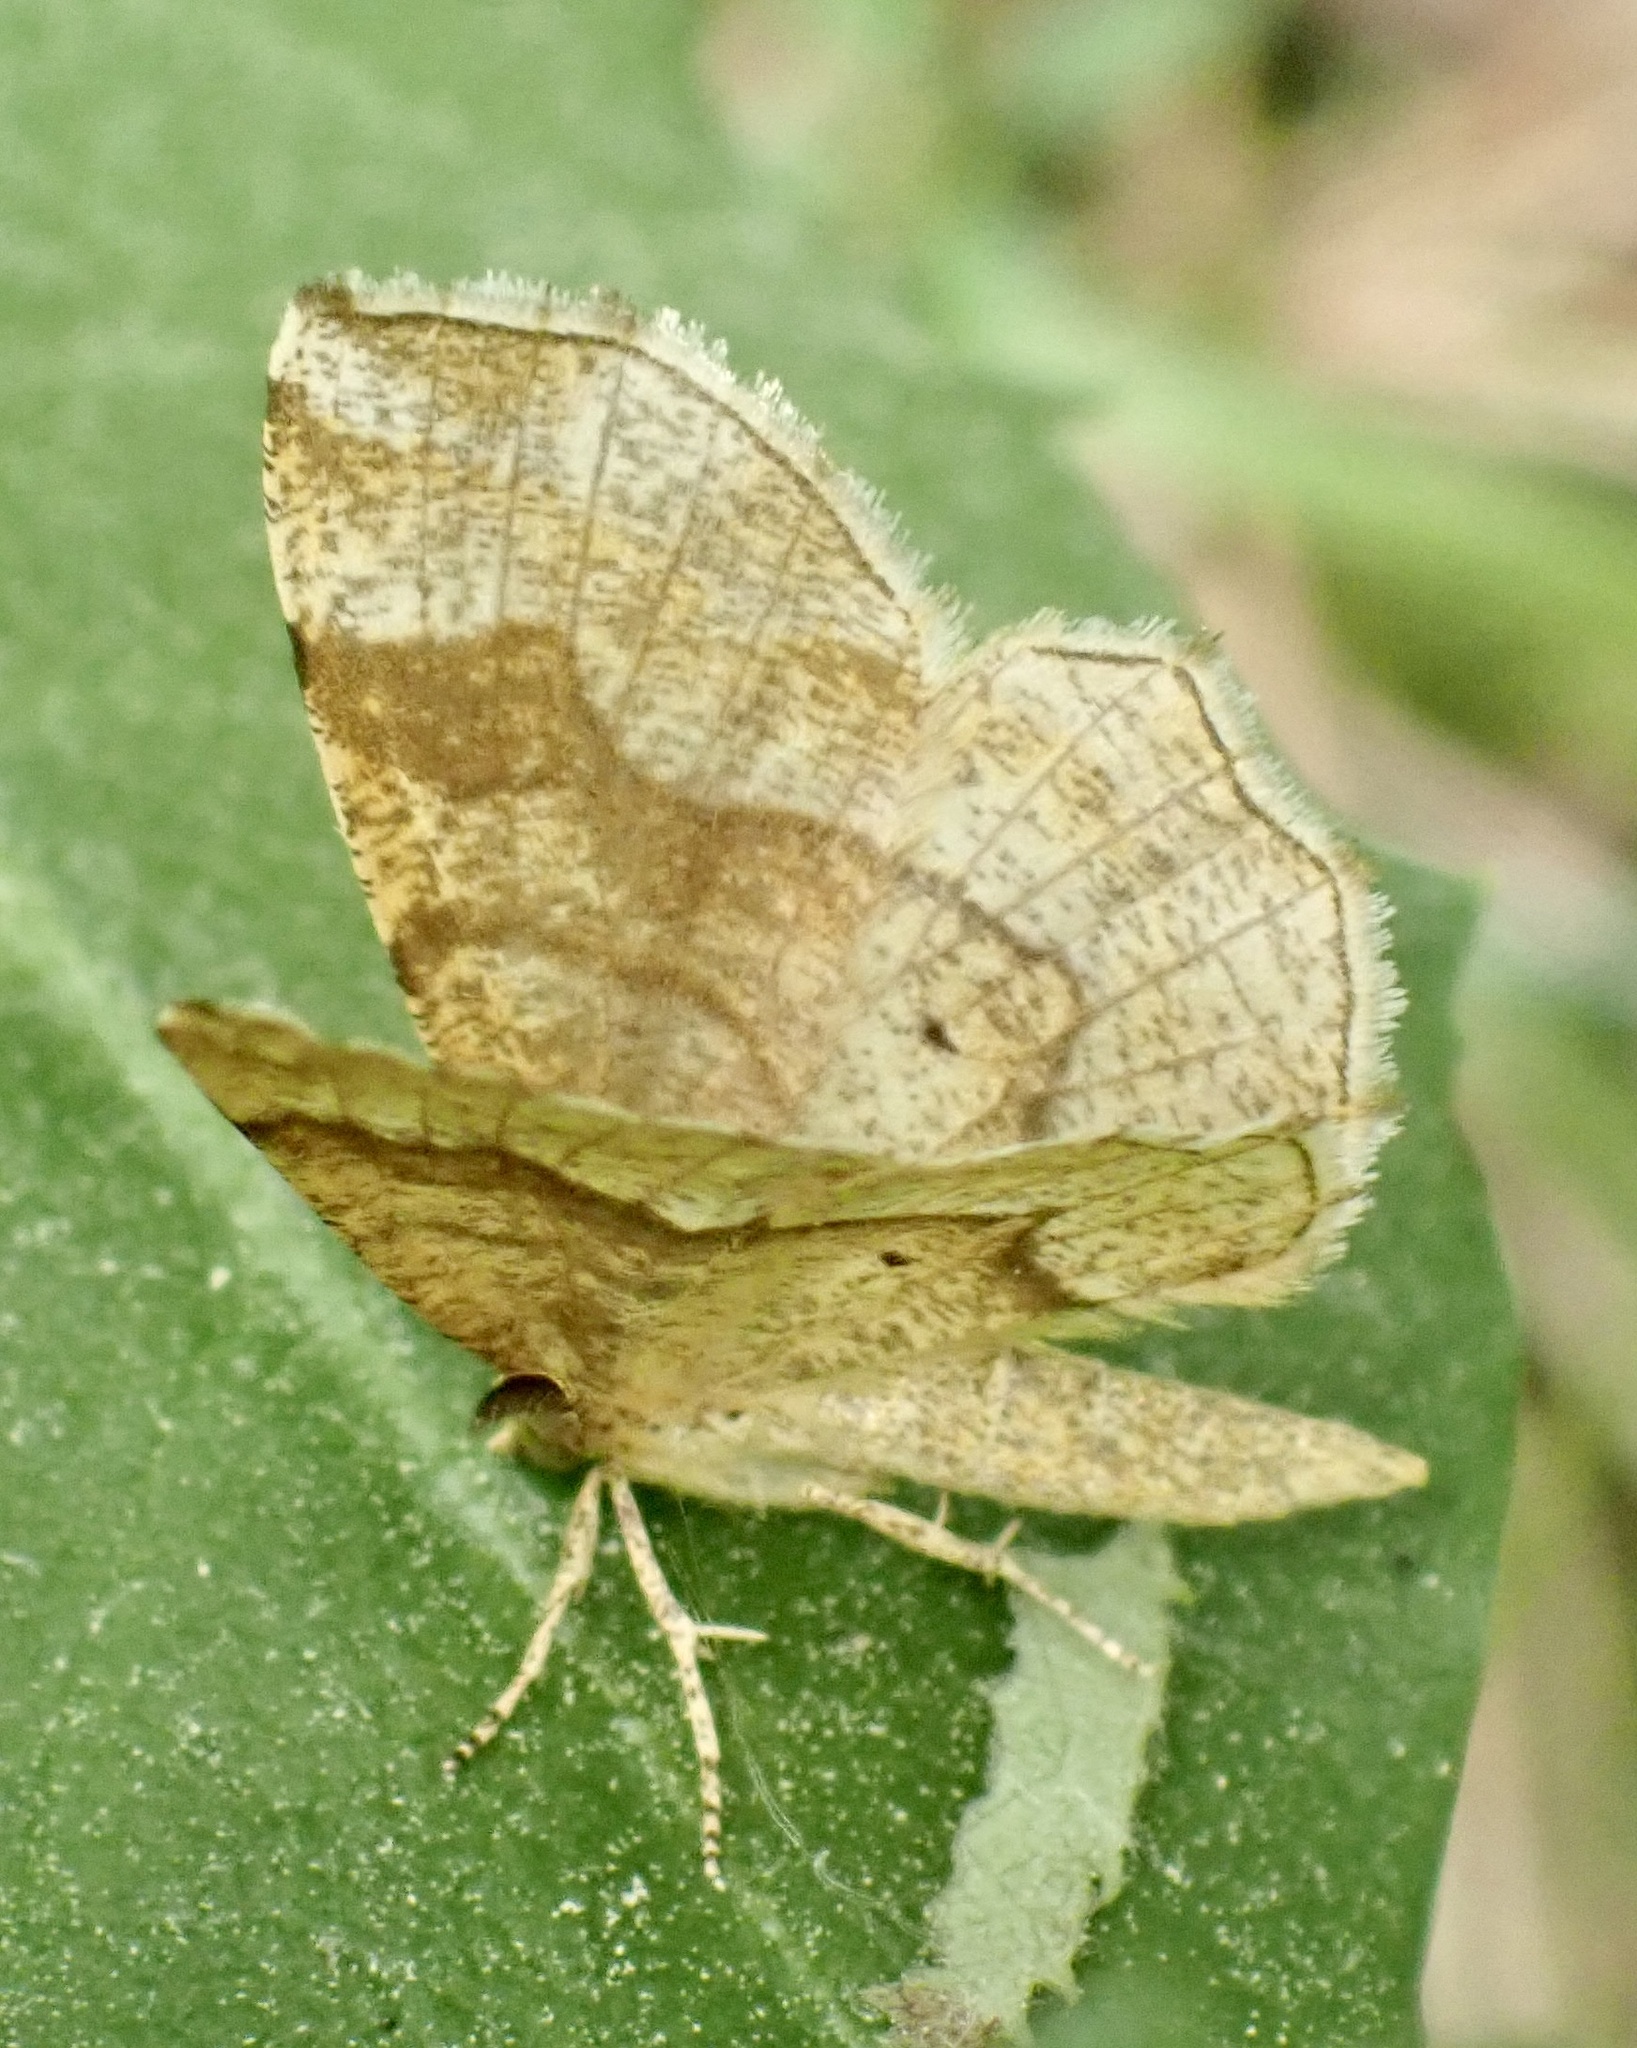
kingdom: Animalia
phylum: Arthropoda
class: Insecta
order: Lepidoptera
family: Geometridae
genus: Cepphis
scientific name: Cepphis advenaria
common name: Little thorn
